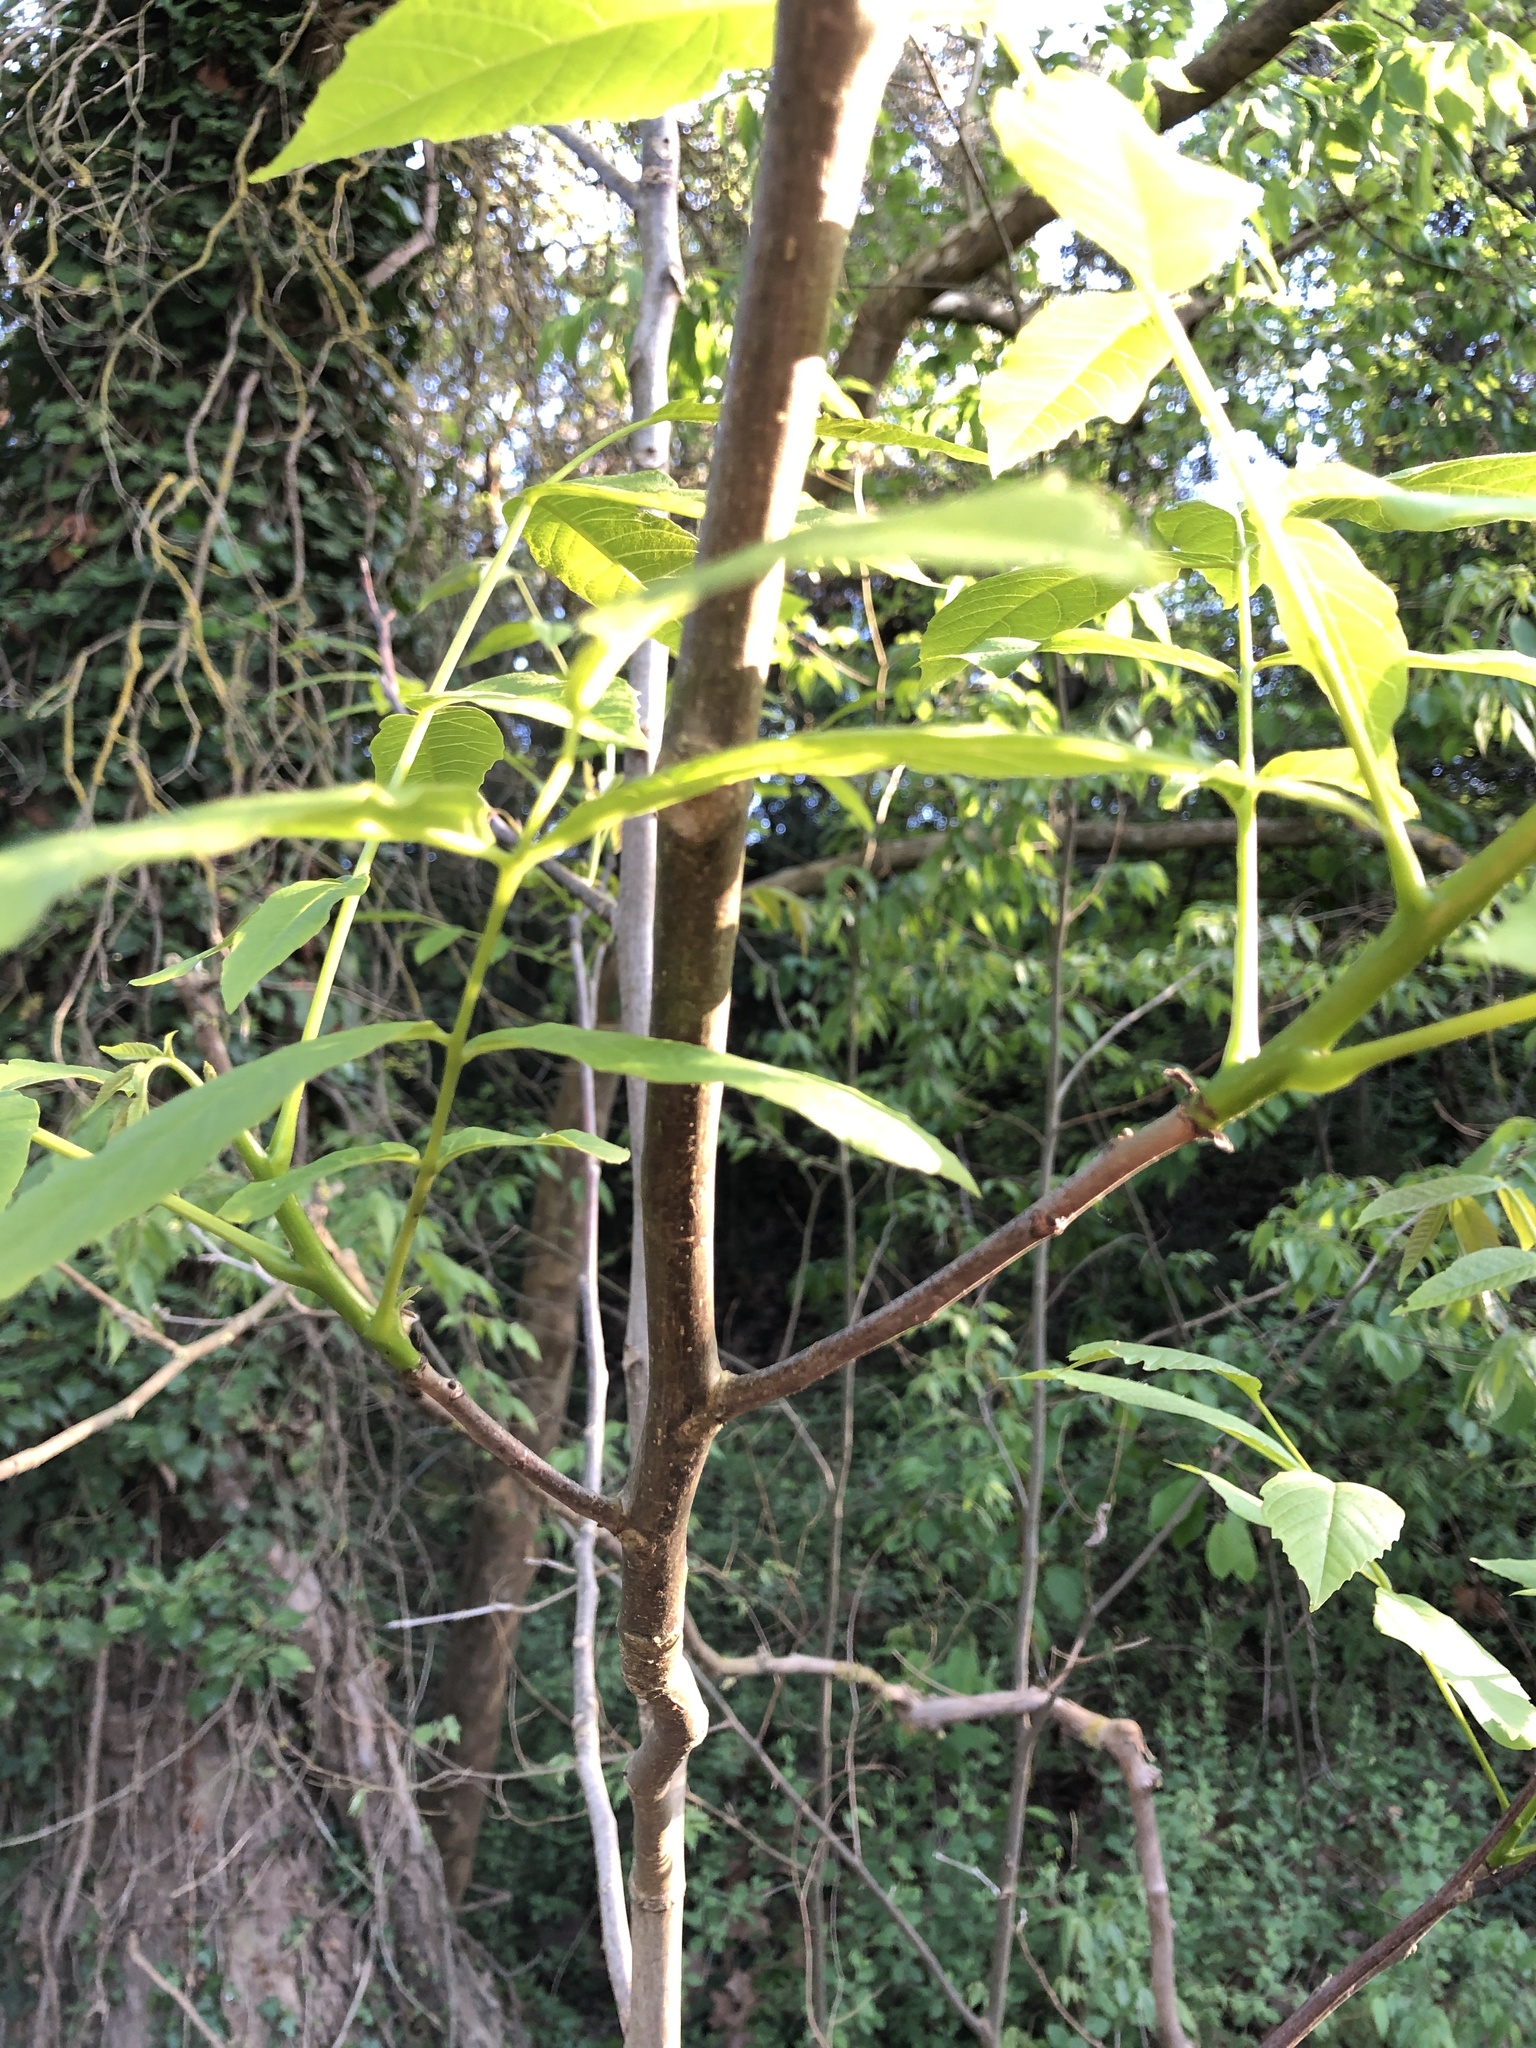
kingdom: Plantae
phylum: Tracheophyta
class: Magnoliopsida
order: Fagales
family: Juglandaceae
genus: Juglans
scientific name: Juglans regia
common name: Walnut
